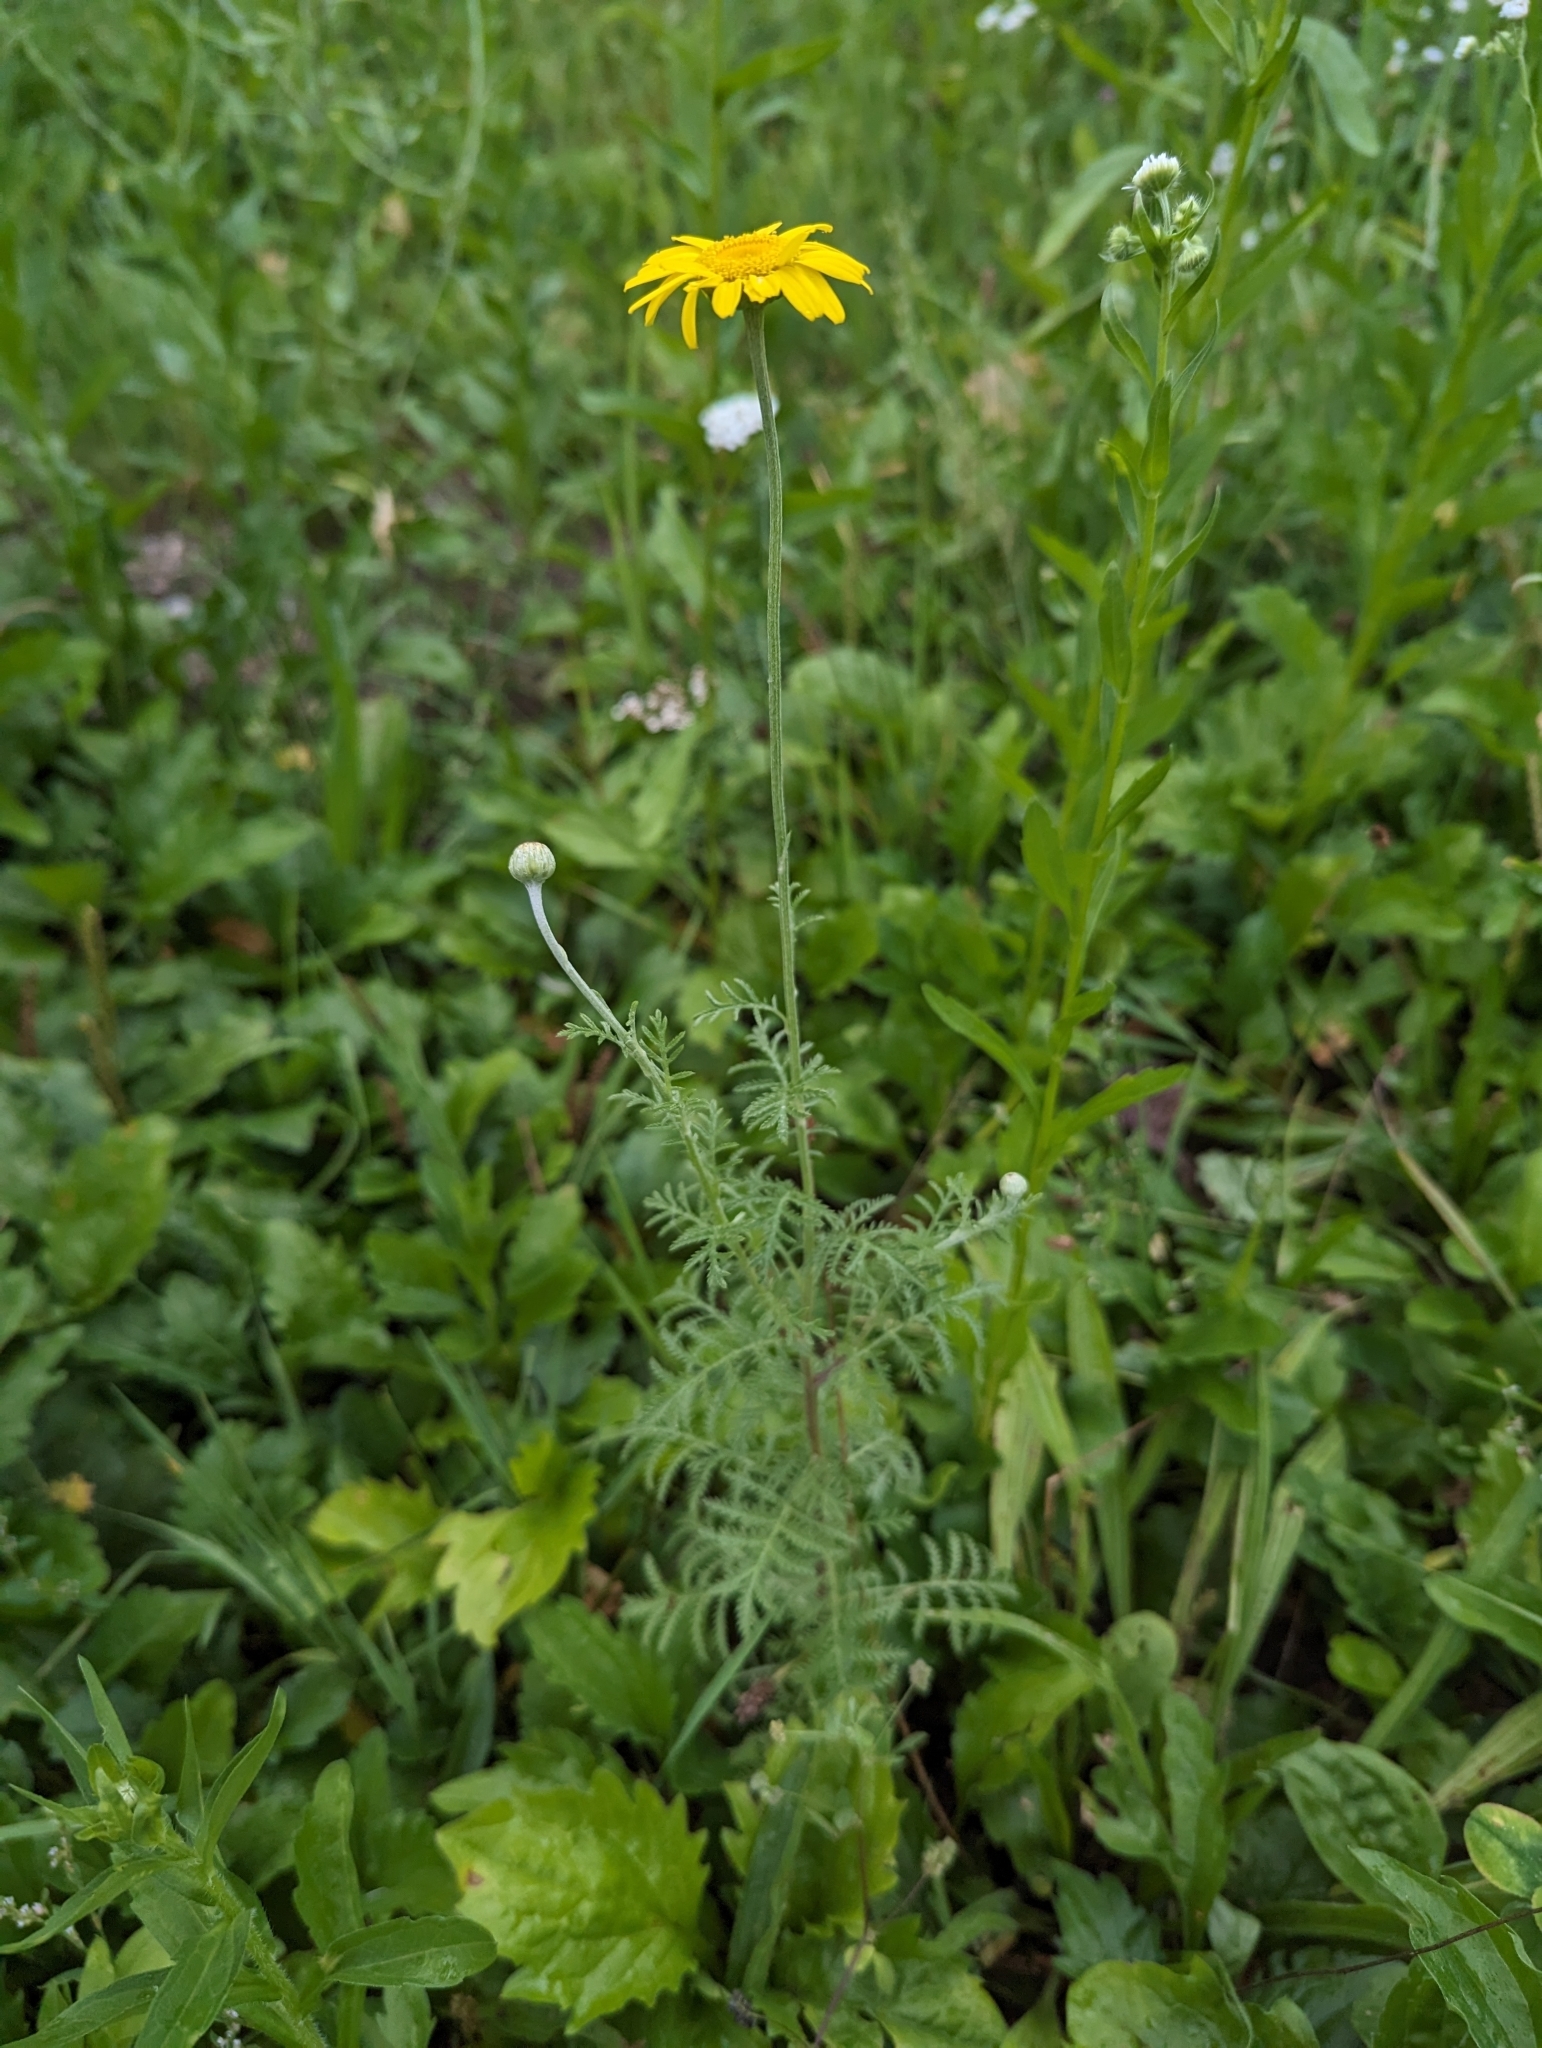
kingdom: Plantae
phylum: Tracheophyta
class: Magnoliopsida
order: Asterales
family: Asteraceae
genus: Cota
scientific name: Cota tinctoria
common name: Golden chamomile
